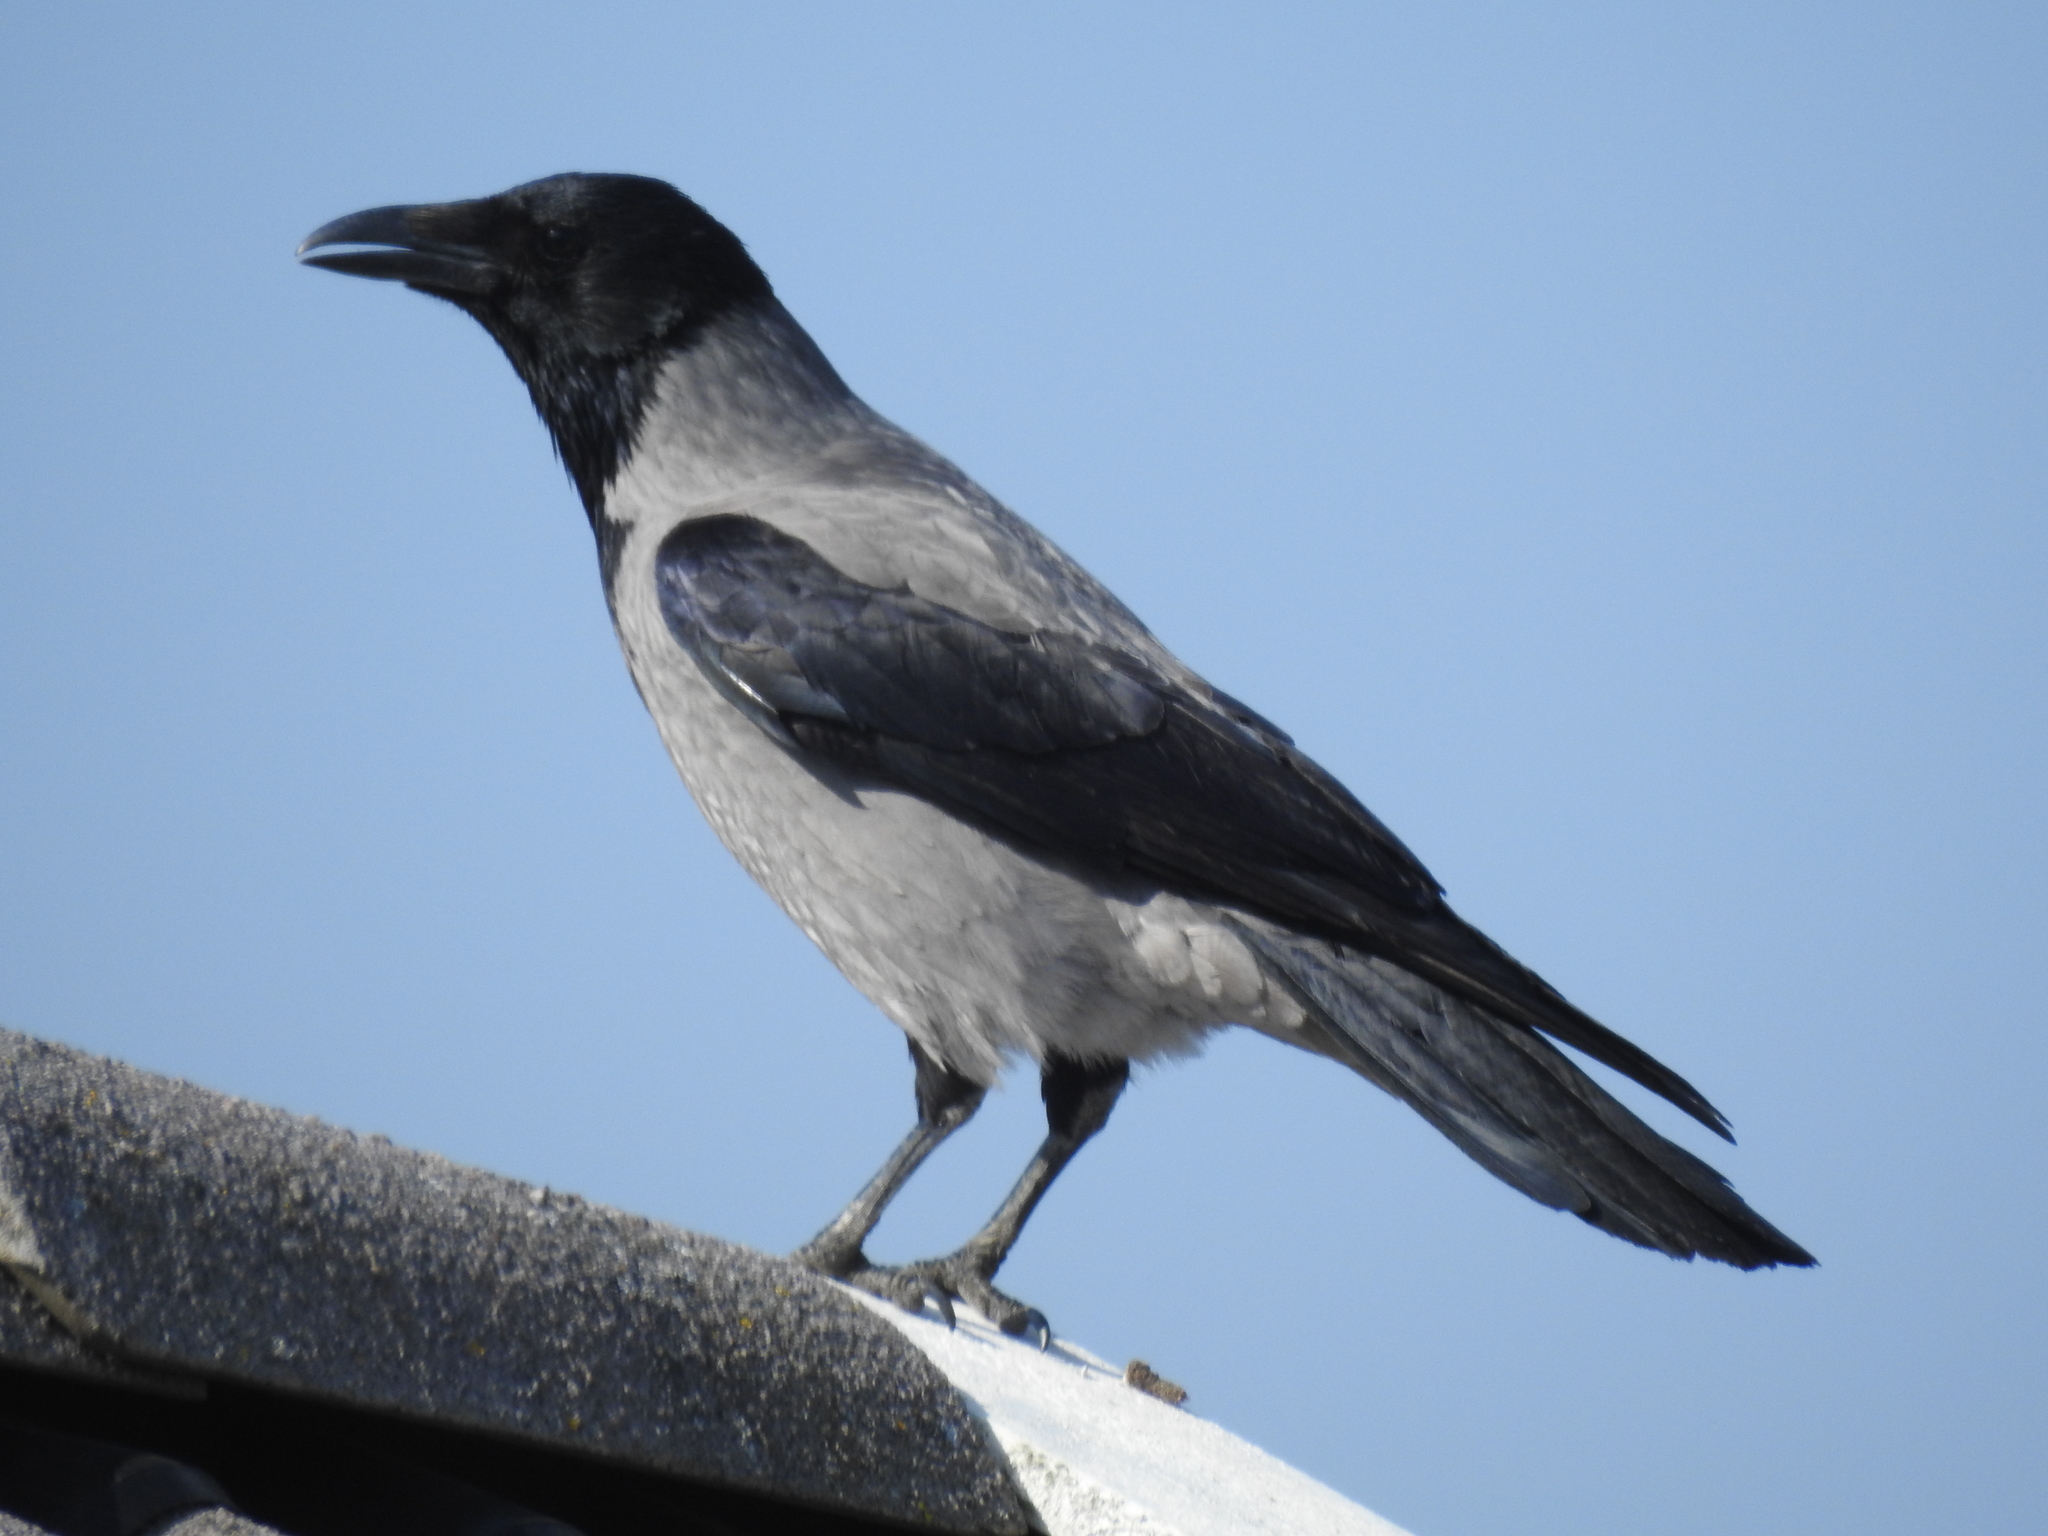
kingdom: Animalia
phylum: Chordata
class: Aves
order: Passeriformes
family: Corvidae
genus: Corvus
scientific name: Corvus cornix
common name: Hooded crow
